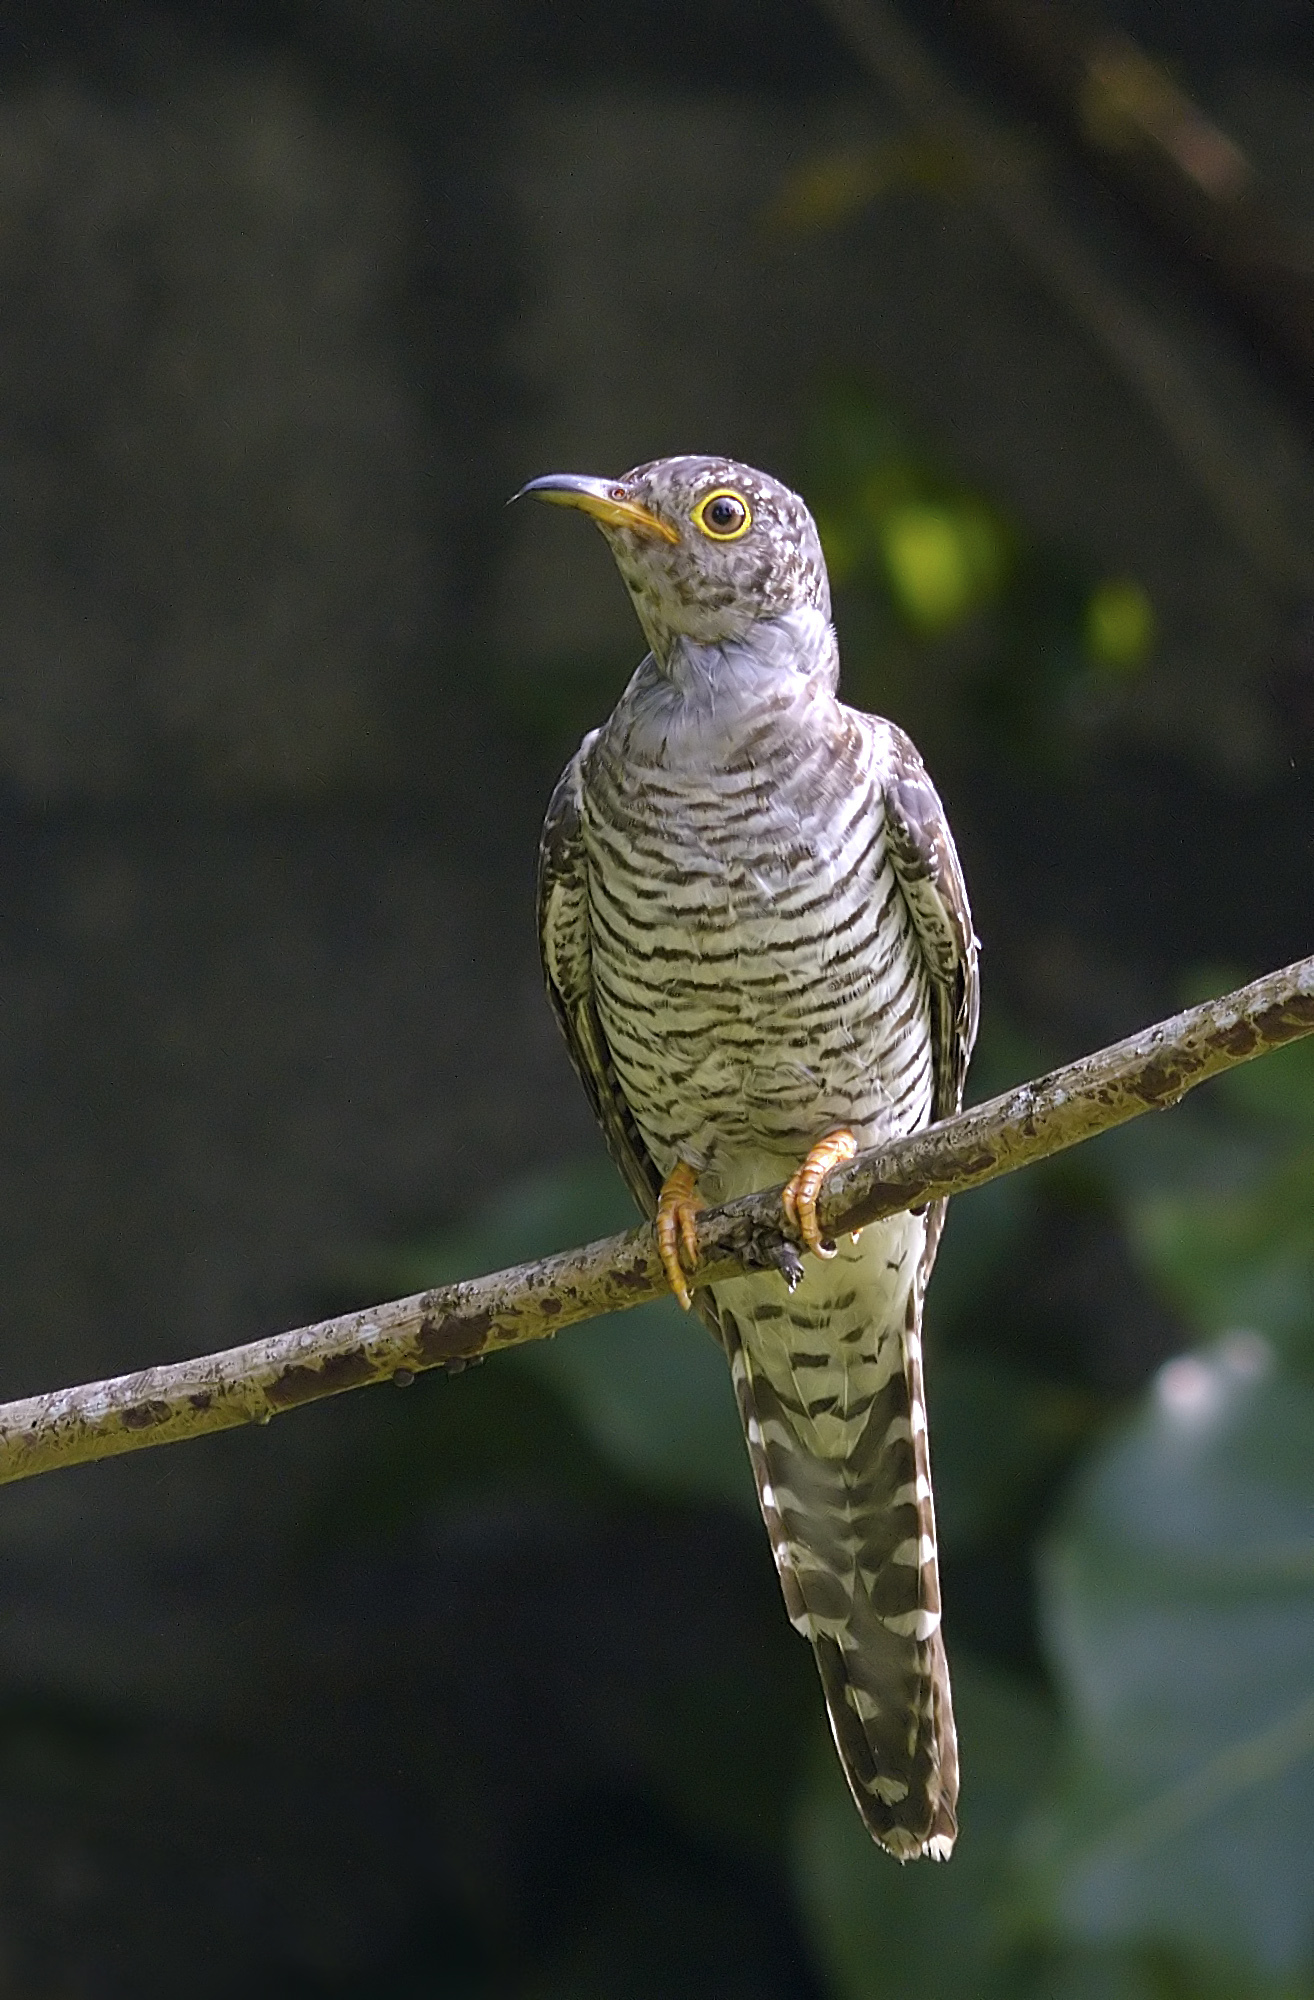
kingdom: Animalia
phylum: Chordata
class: Aves
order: Cuculiformes
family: Cuculidae
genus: Cuculus
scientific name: Cuculus canorus
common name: Common cuckoo
